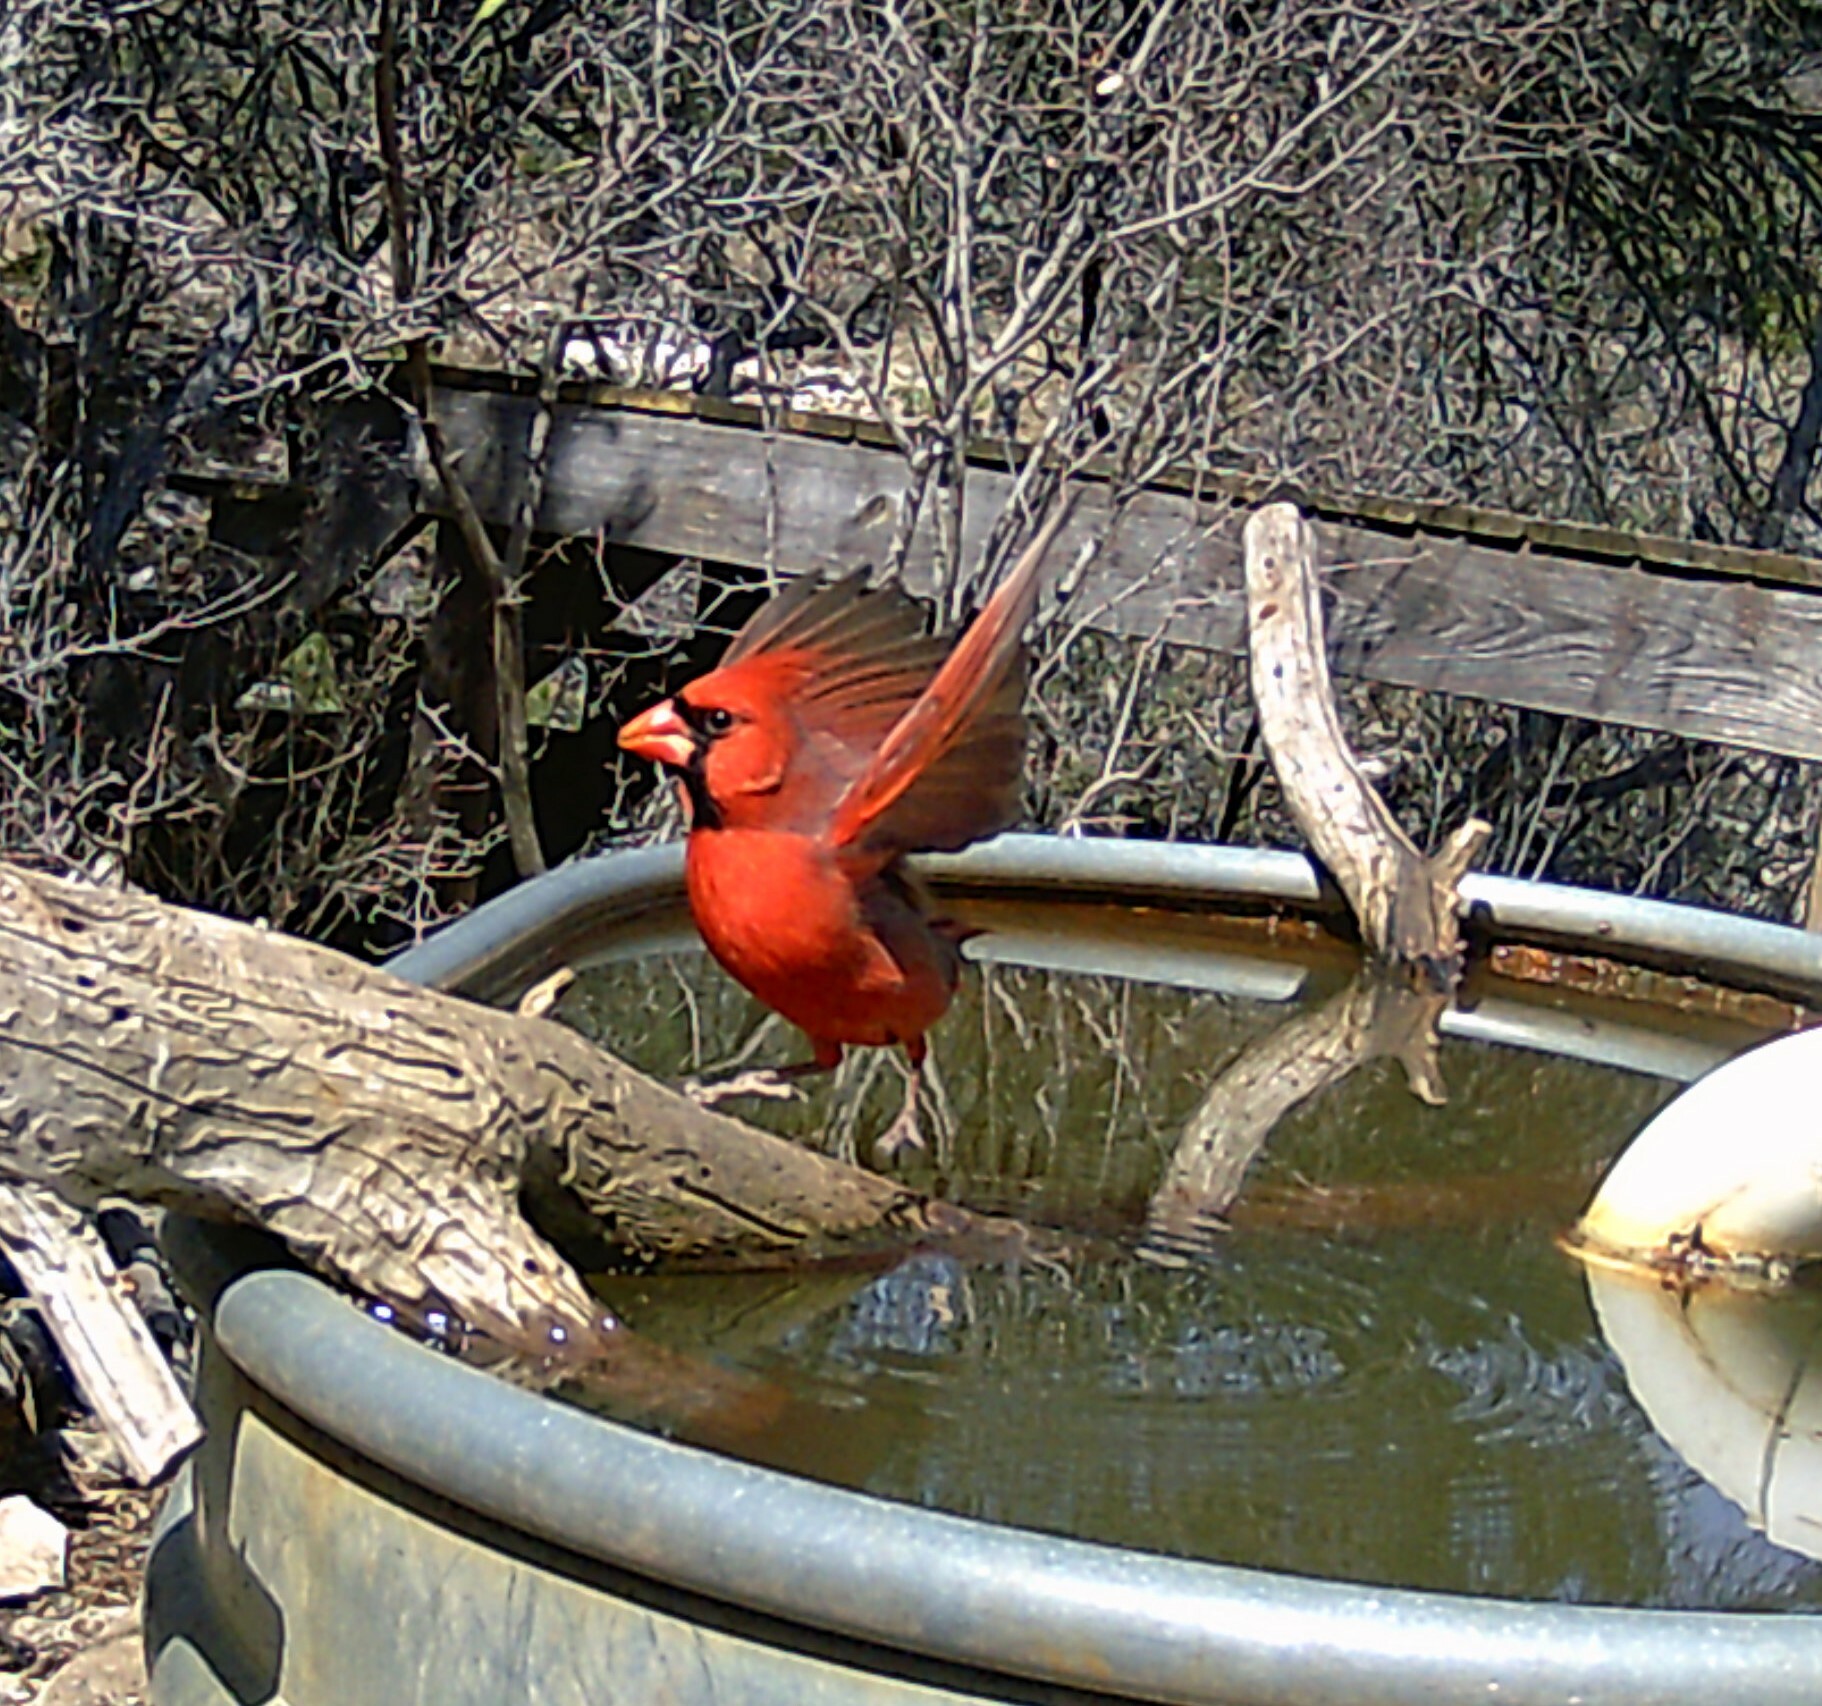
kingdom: Animalia
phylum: Chordata
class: Aves
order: Passeriformes
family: Cardinalidae
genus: Cardinalis
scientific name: Cardinalis cardinalis
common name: Northern cardinal
